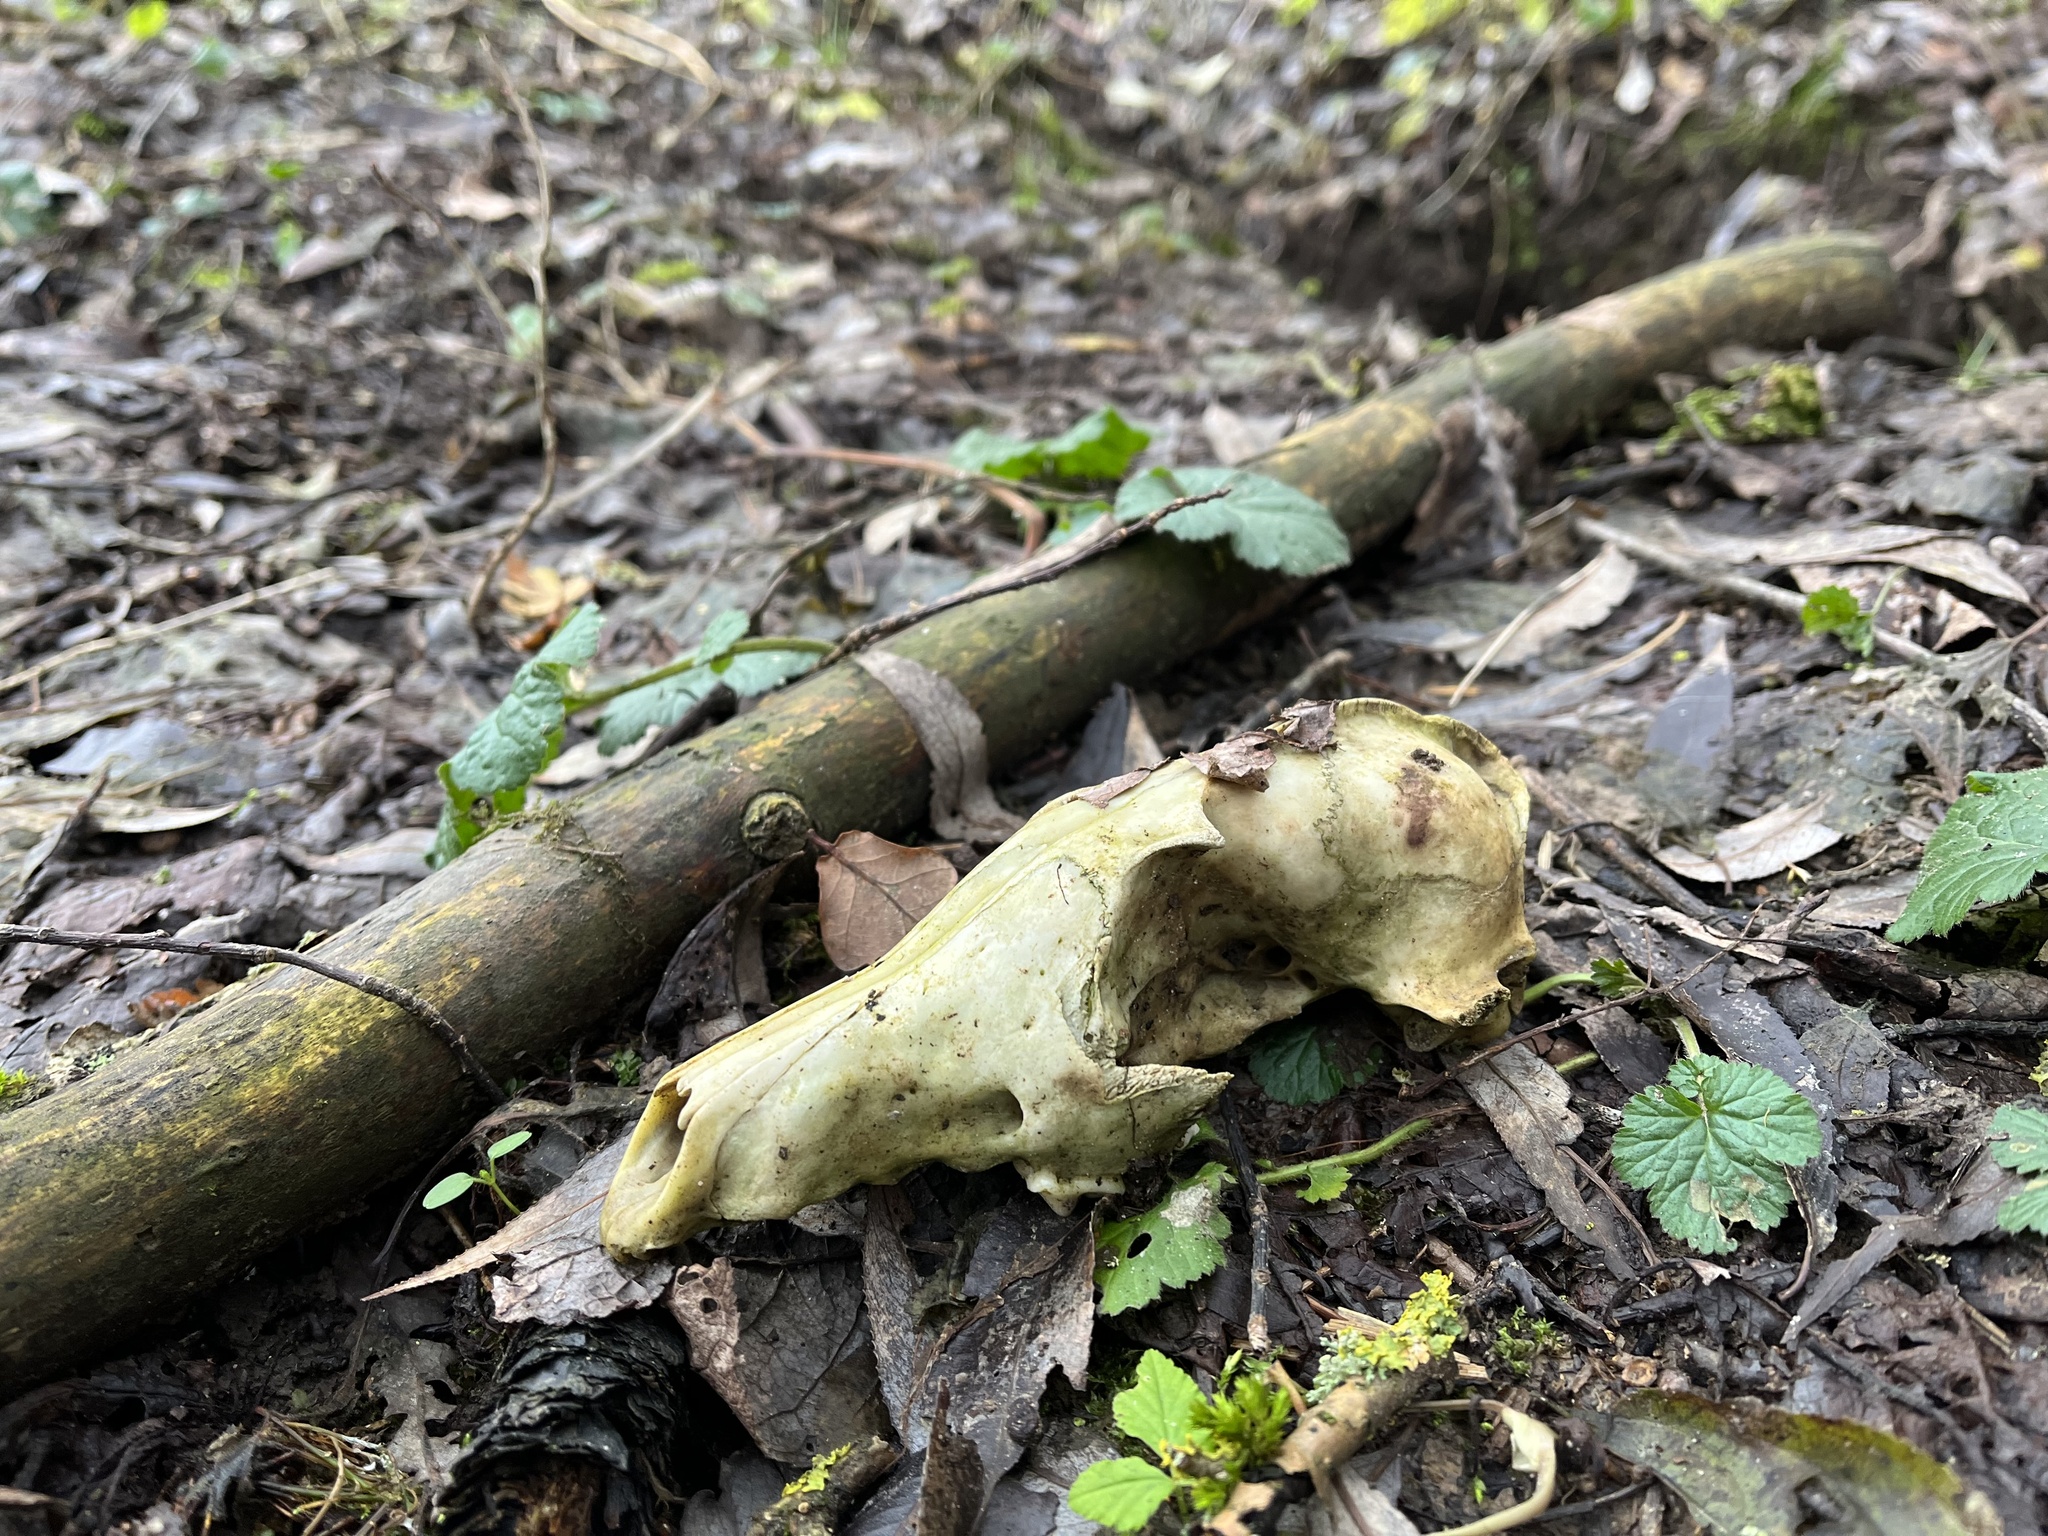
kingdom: Animalia
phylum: Chordata
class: Mammalia
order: Carnivora
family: Canidae
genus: Vulpes
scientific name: Vulpes vulpes
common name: Red fox
